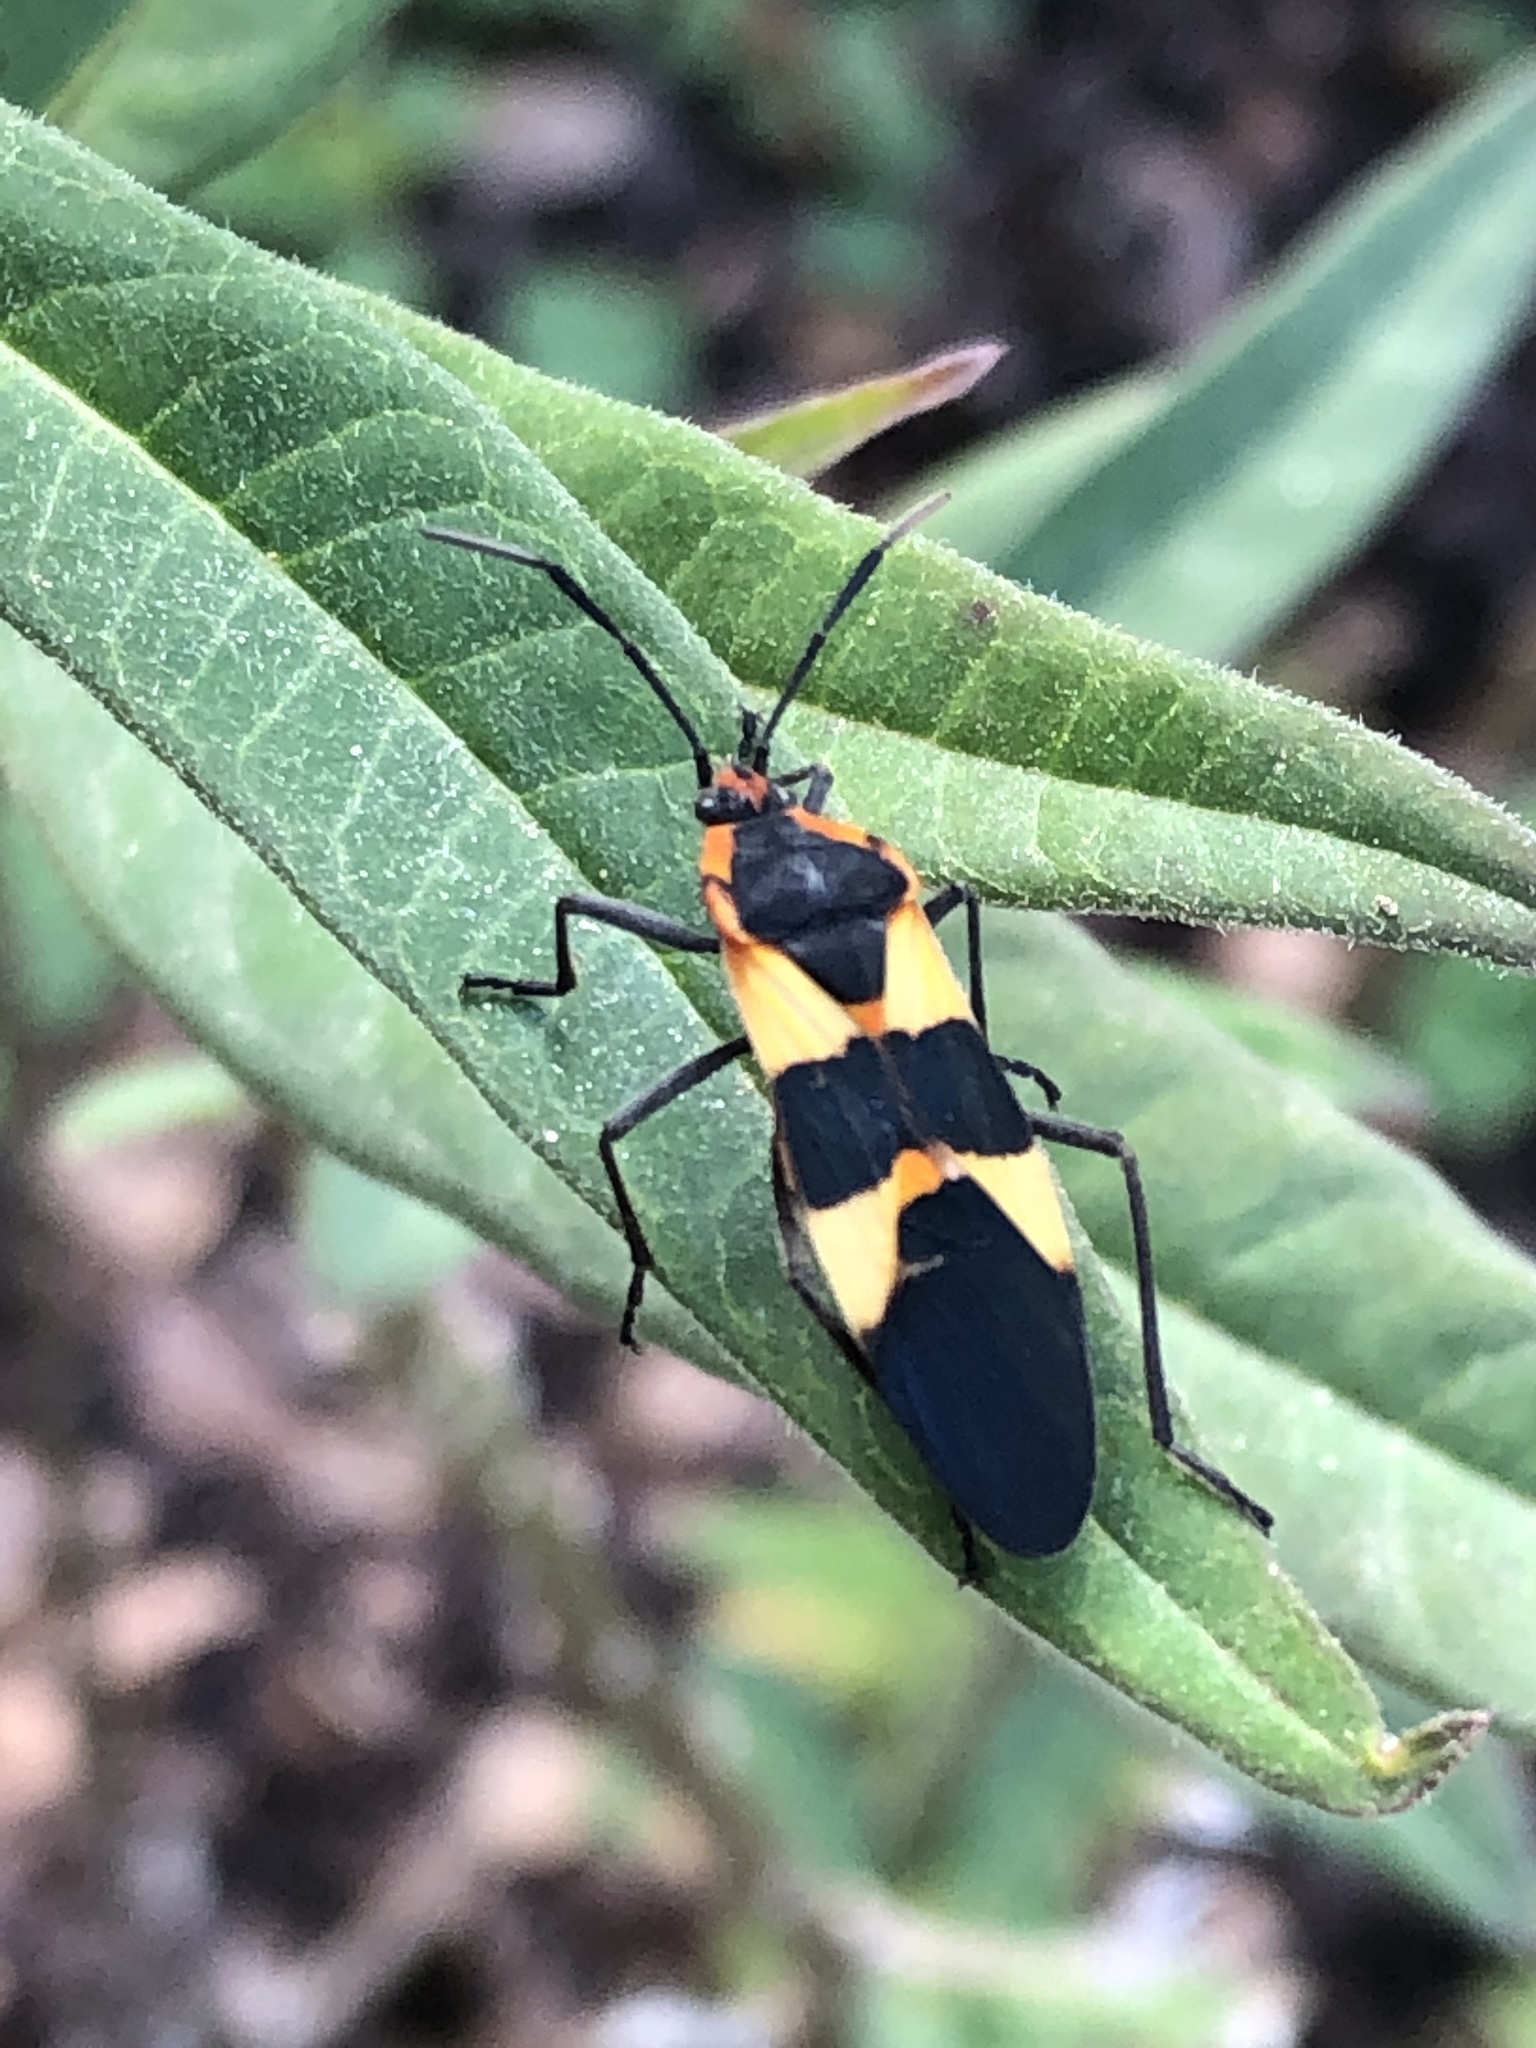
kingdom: Animalia
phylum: Arthropoda
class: Insecta
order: Hemiptera
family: Lygaeidae
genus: Oncopeltus
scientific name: Oncopeltus fasciatus
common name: Large milkweed bug
